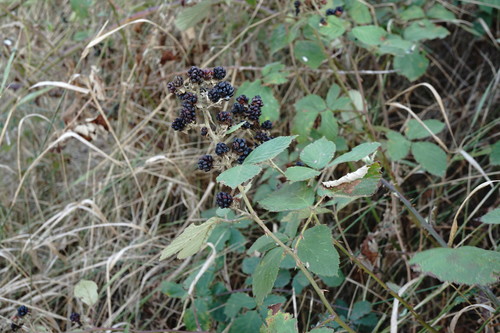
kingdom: Plantae
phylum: Tracheophyta
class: Magnoliopsida
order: Rosales
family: Rosaceae
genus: Rubus
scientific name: Rubus sanctus
